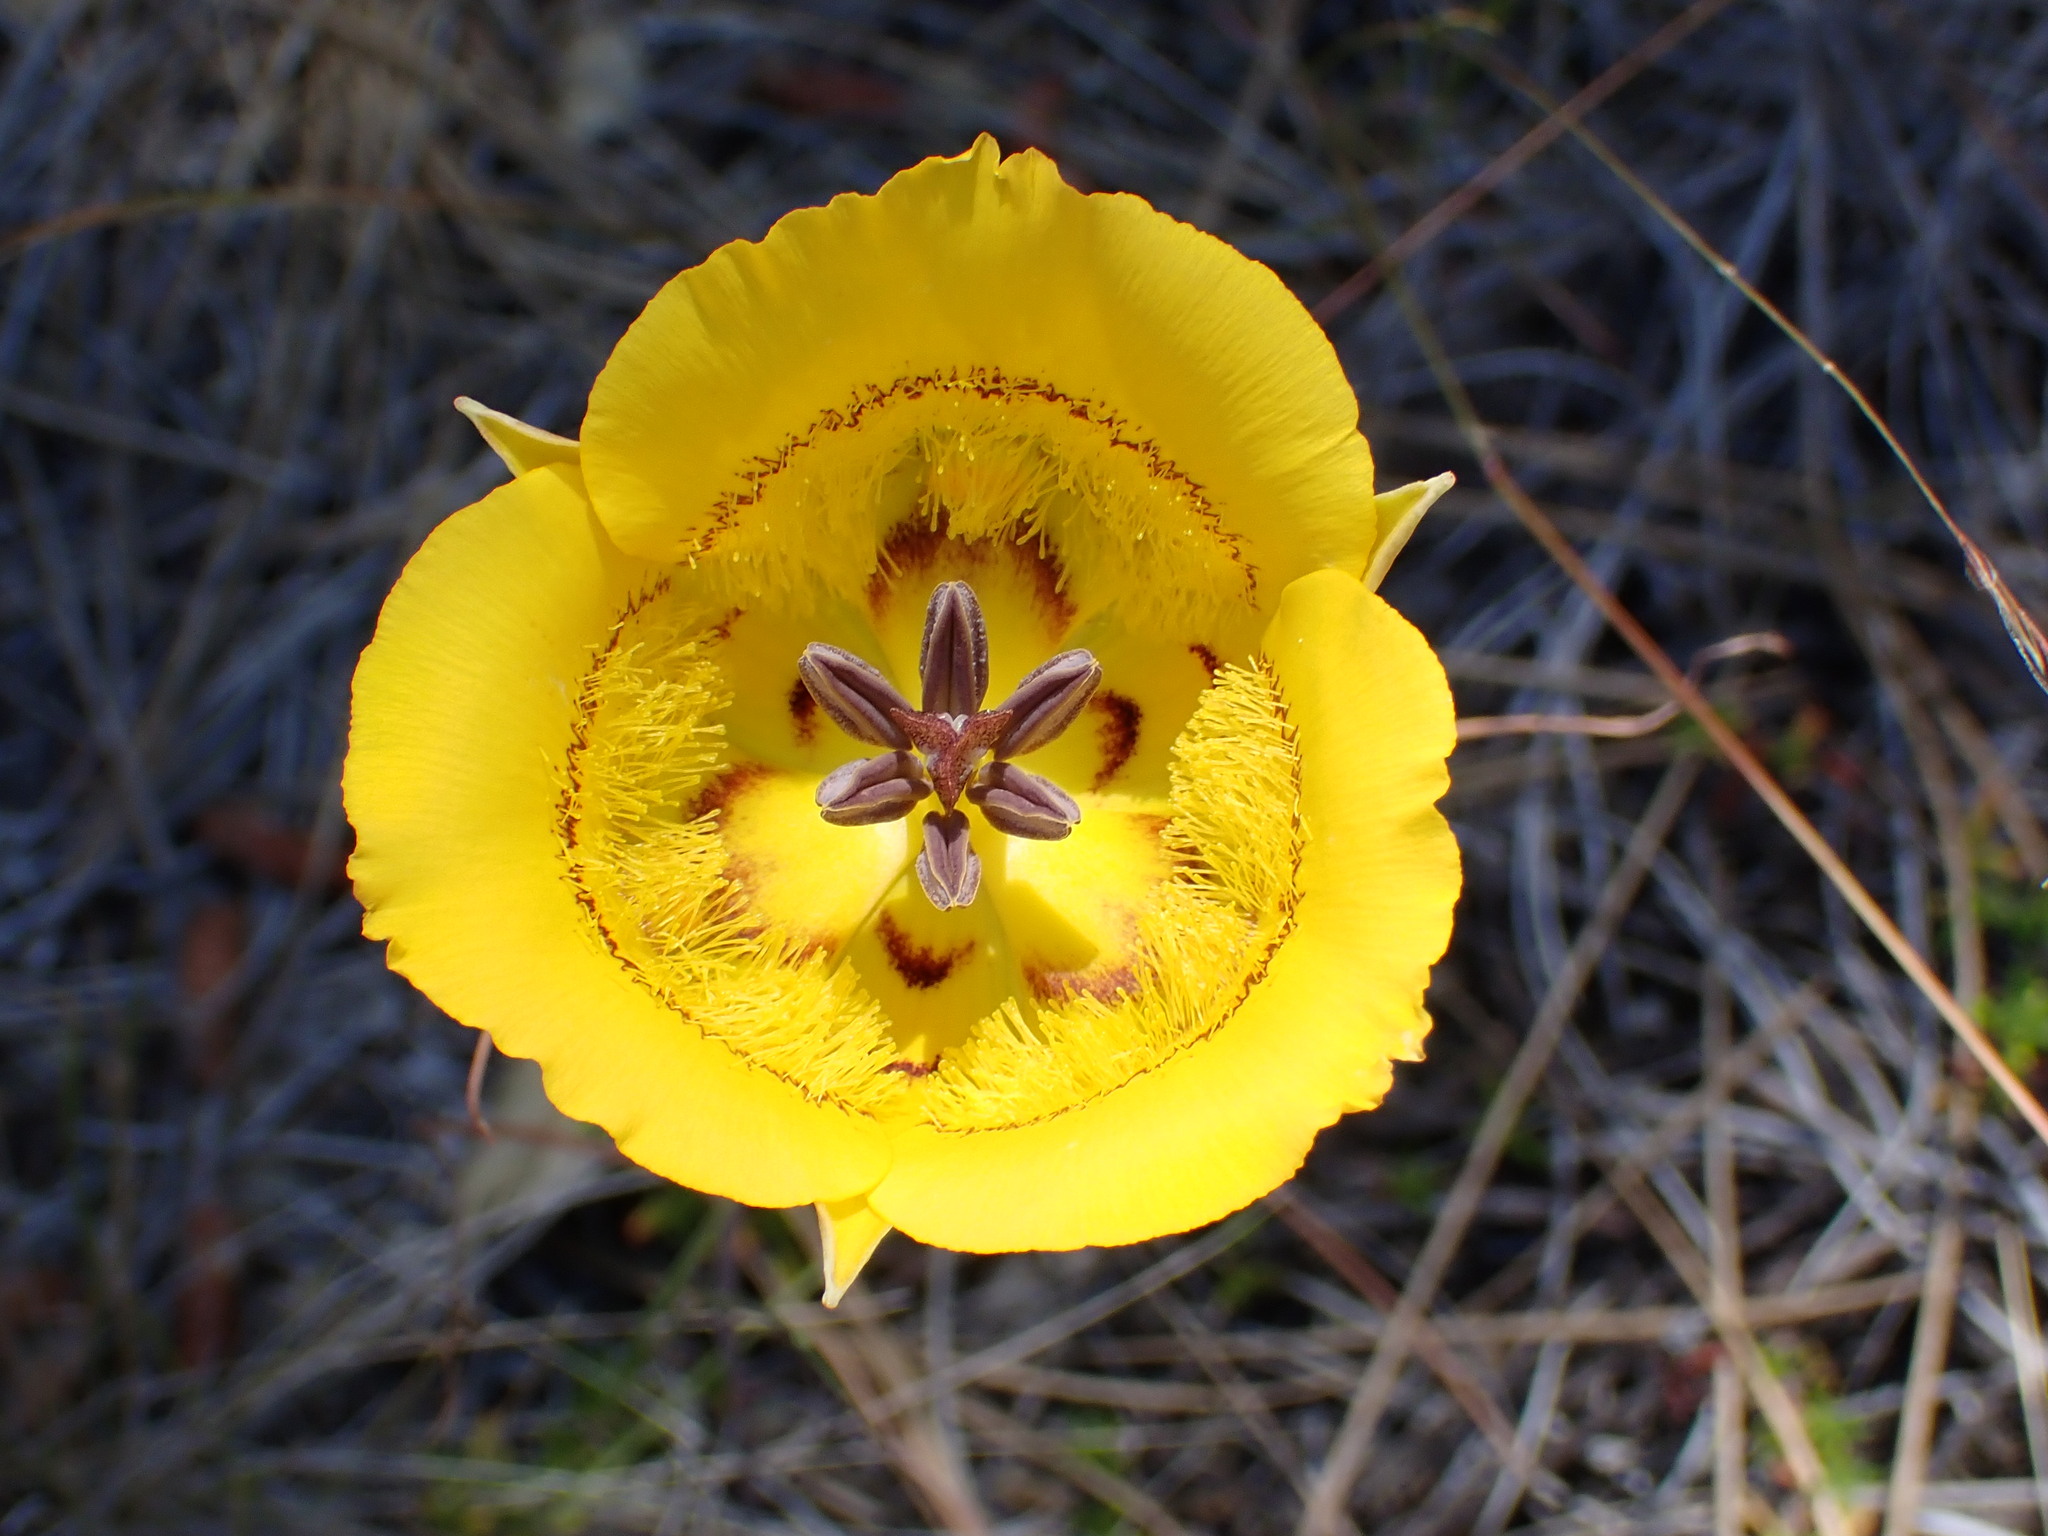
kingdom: Plantae
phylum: Tracheophyta
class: Liliopsida
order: Liliales
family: Liliaceae
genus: Calochortus
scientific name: Calochortus clavatus
